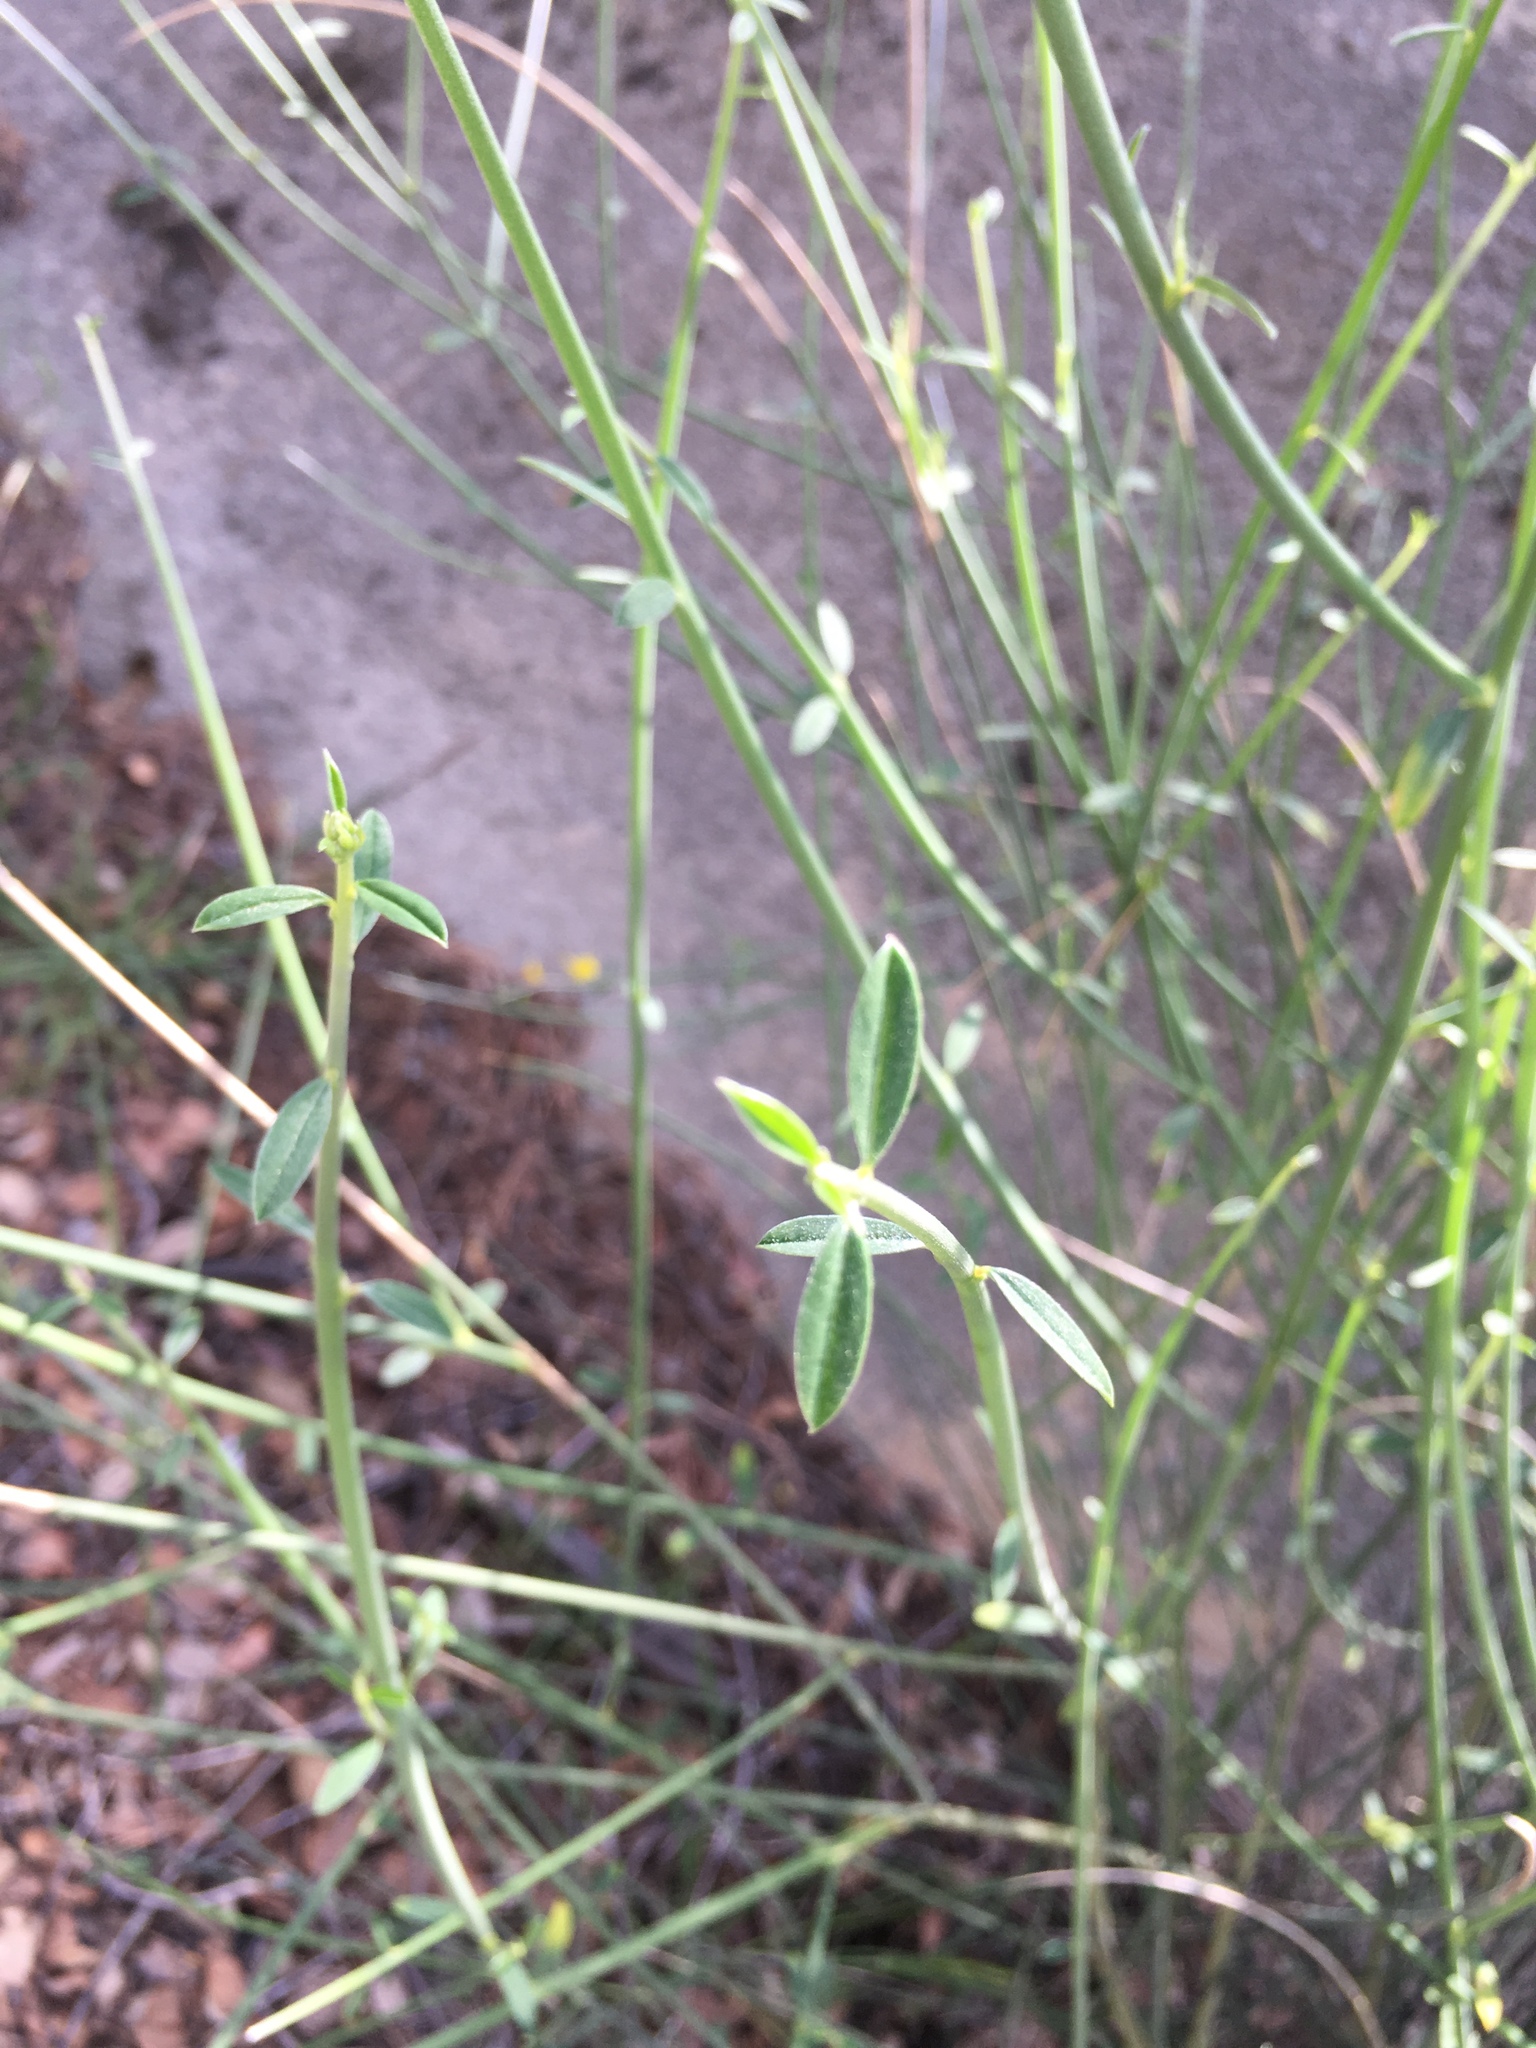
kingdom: Plantae
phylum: Tracheophyta
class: Magnoliopsida
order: Fabales
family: Fabaceae
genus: Spartium
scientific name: Spartium junceum
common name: Spanish broom
